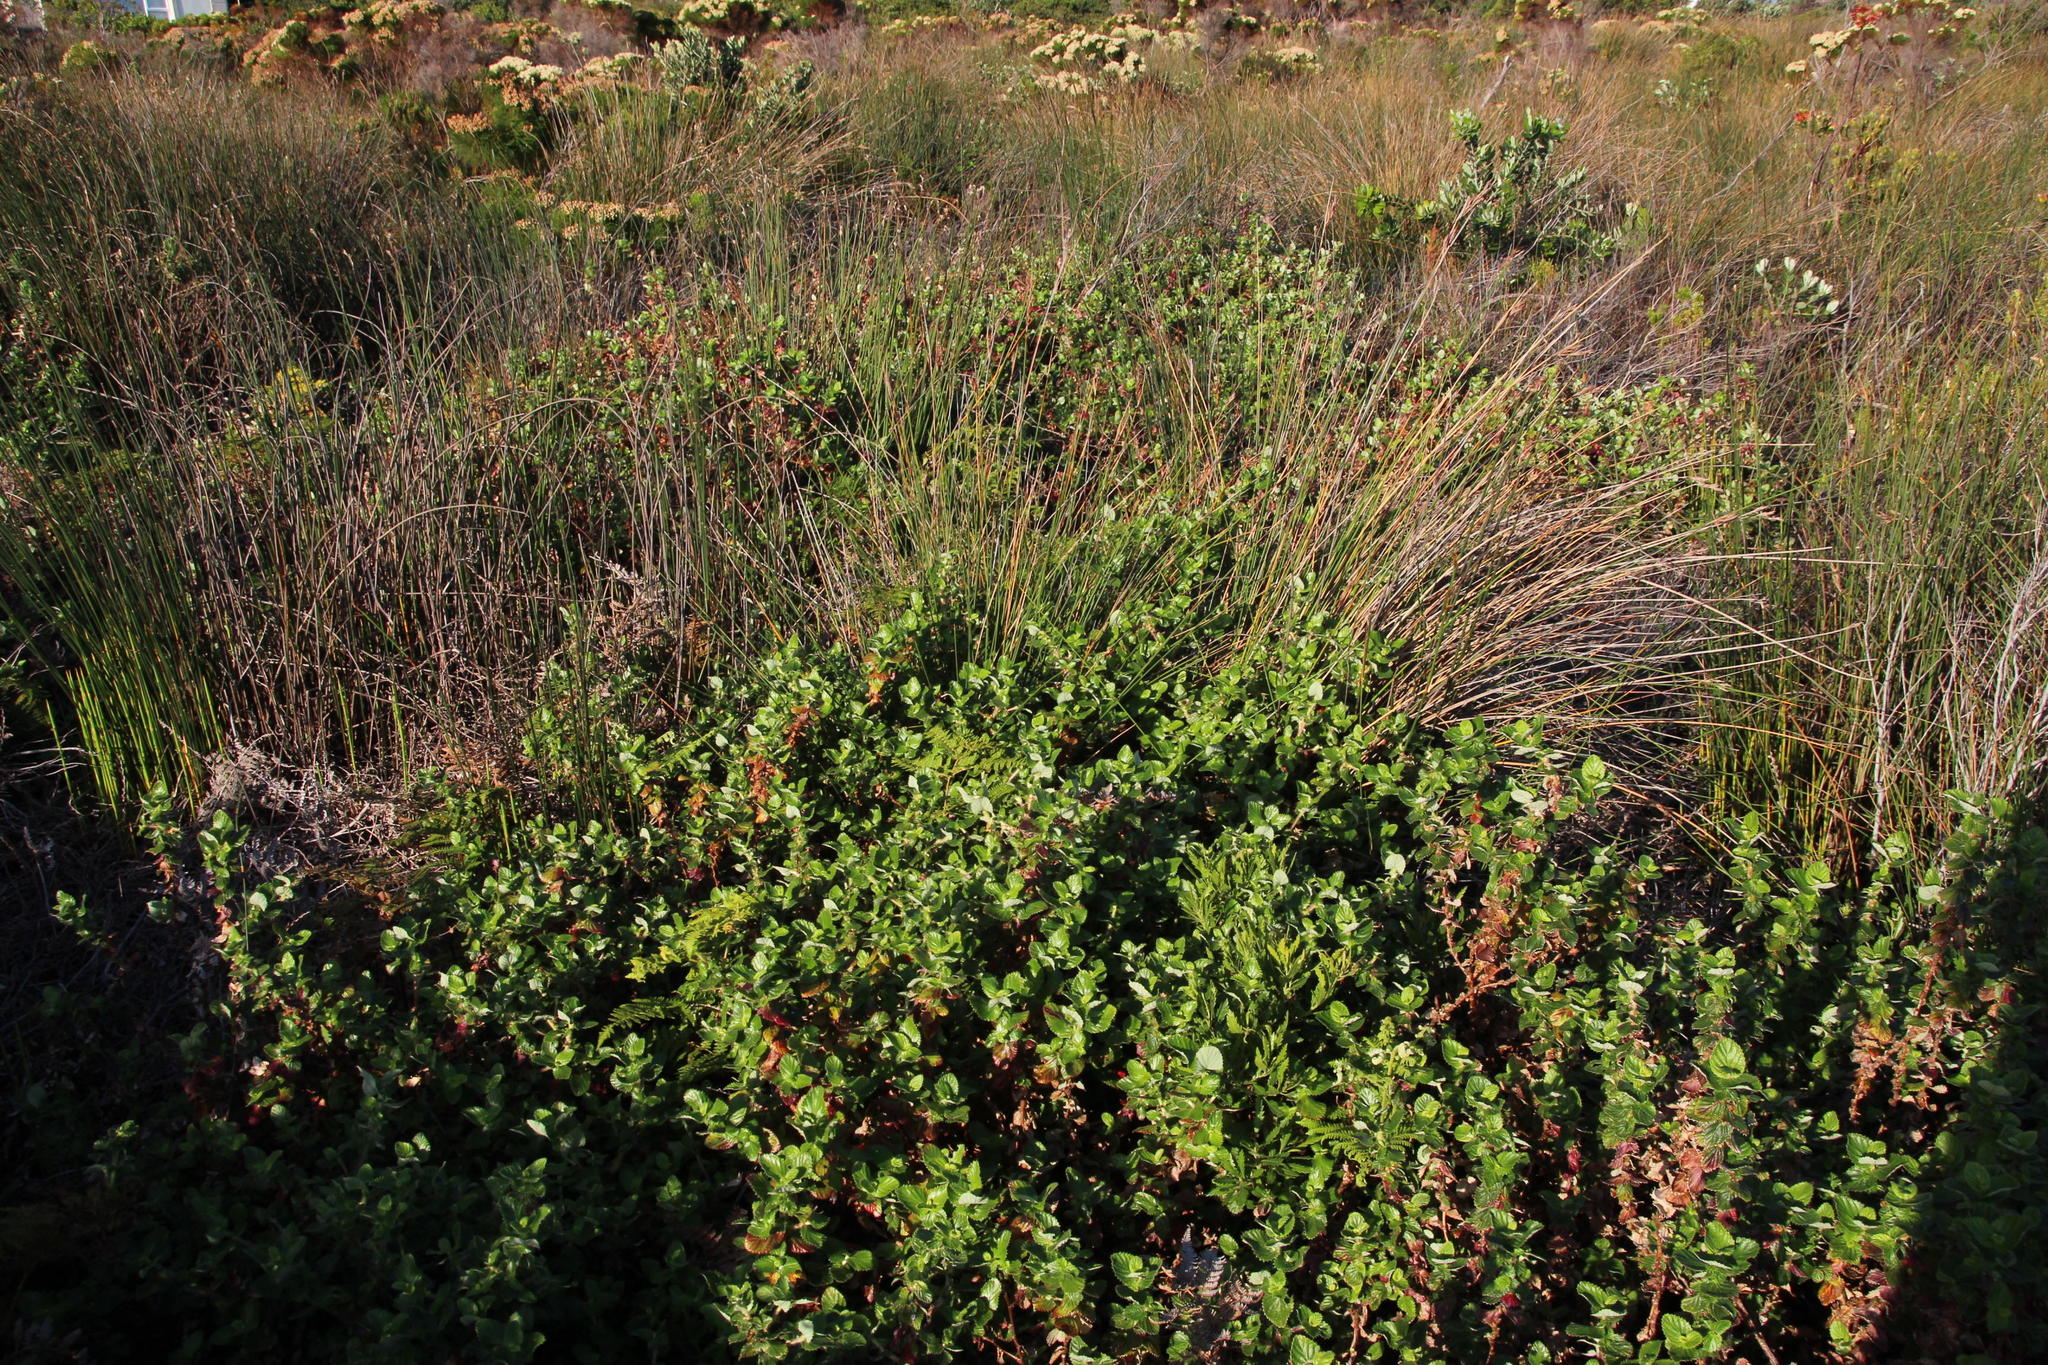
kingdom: Plantae
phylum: Tracheophyta
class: Magnoliopsida
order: Rosales
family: Rosaceae
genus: Cliffortia
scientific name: Cliffortia hirsuta
